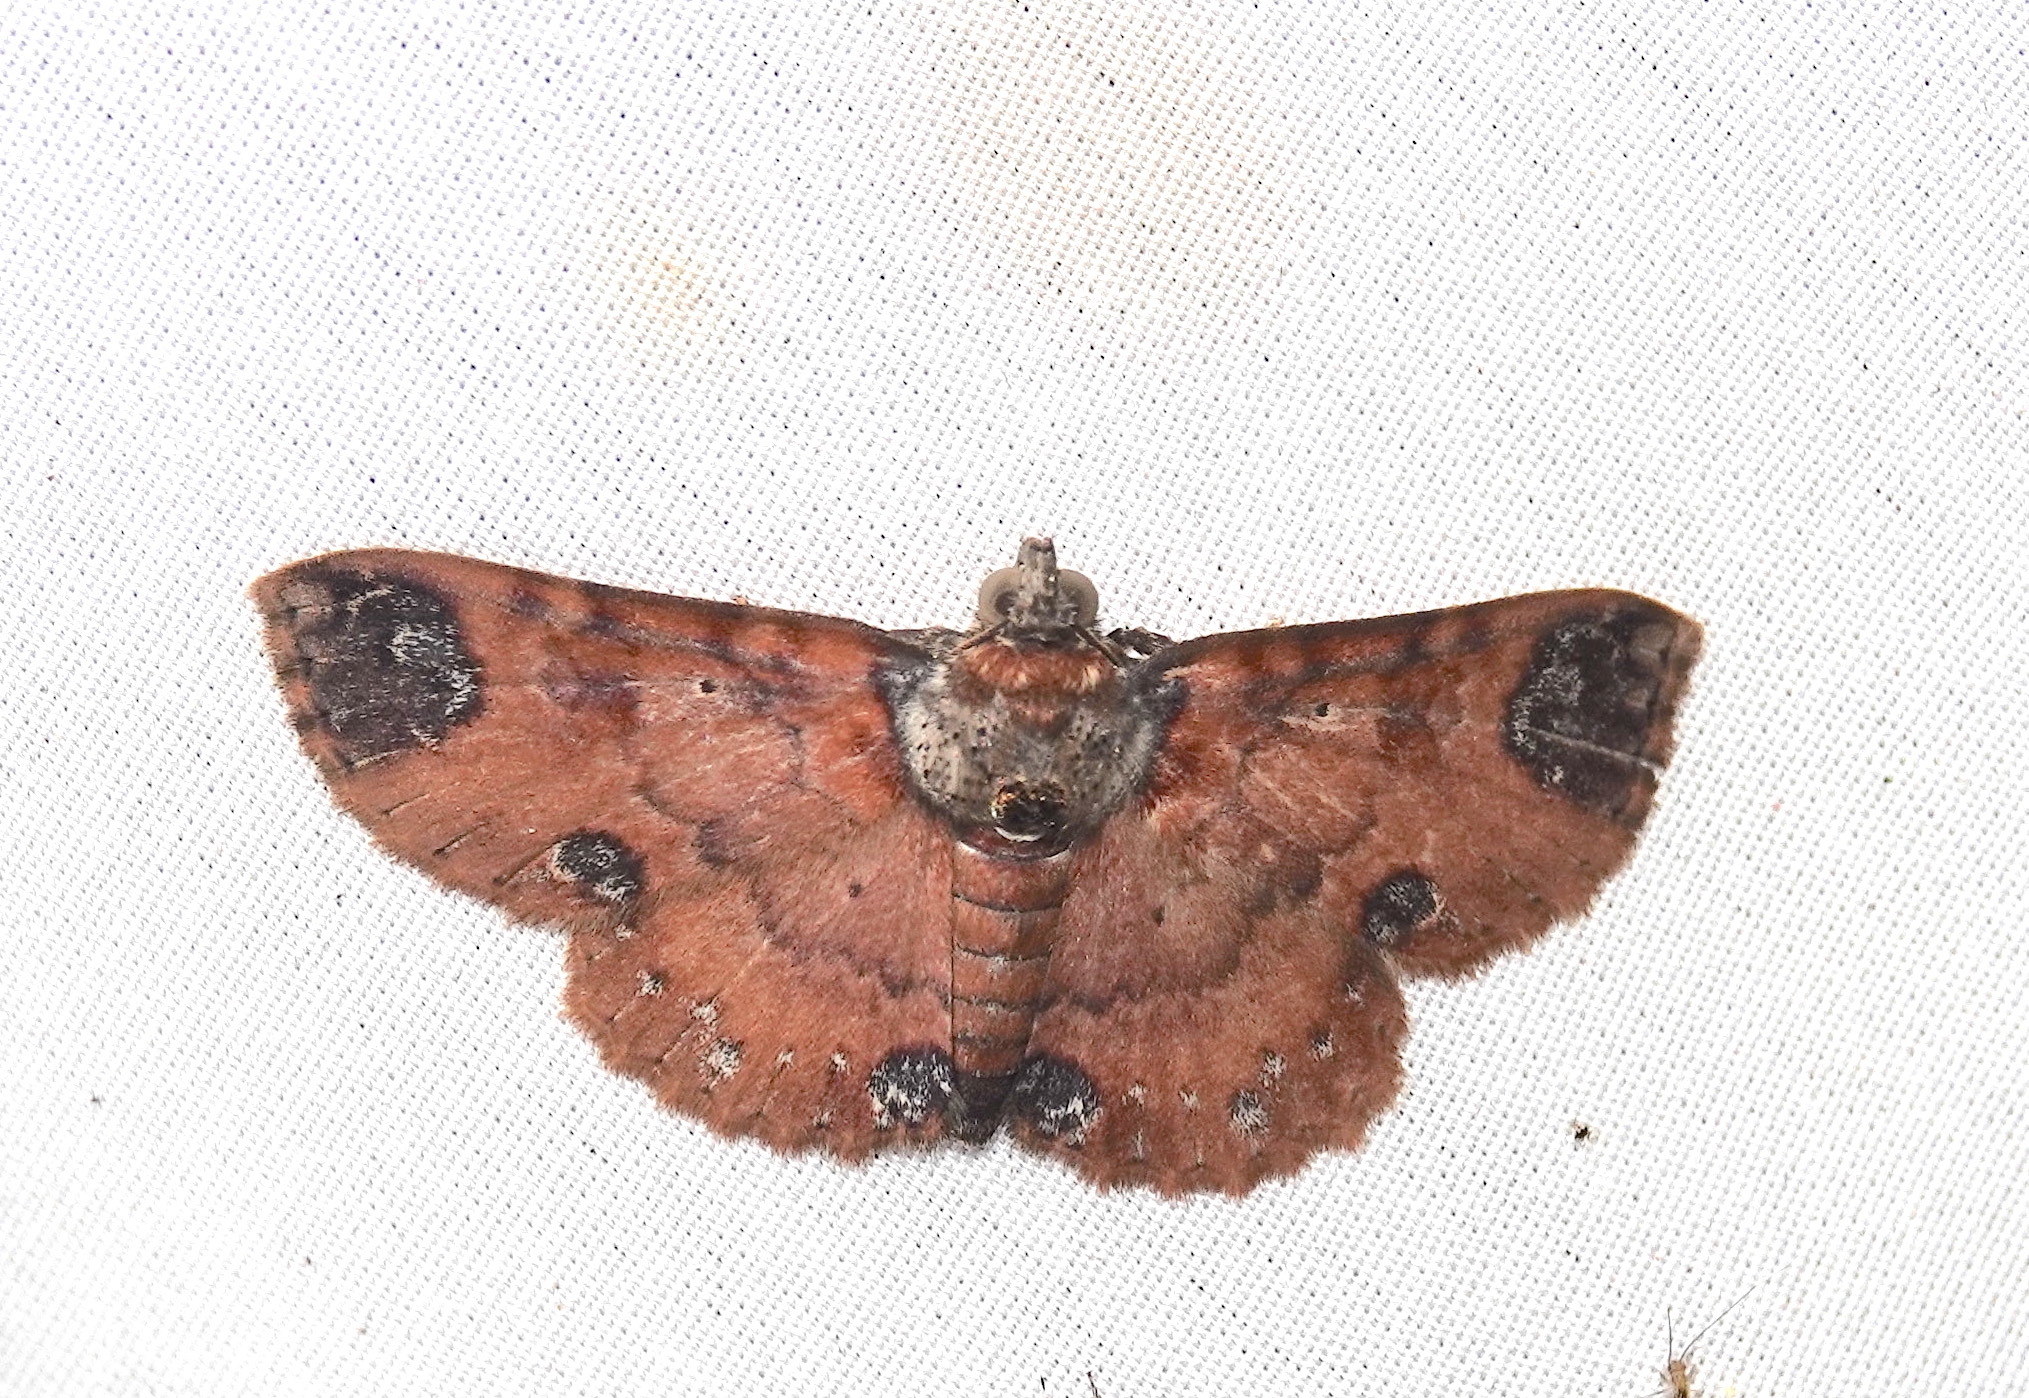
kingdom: Animalia
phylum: Arthropoda
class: Insecta
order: Lepidoptera
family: Erebidae
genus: Antiblemma
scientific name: Antiblemma neptis
